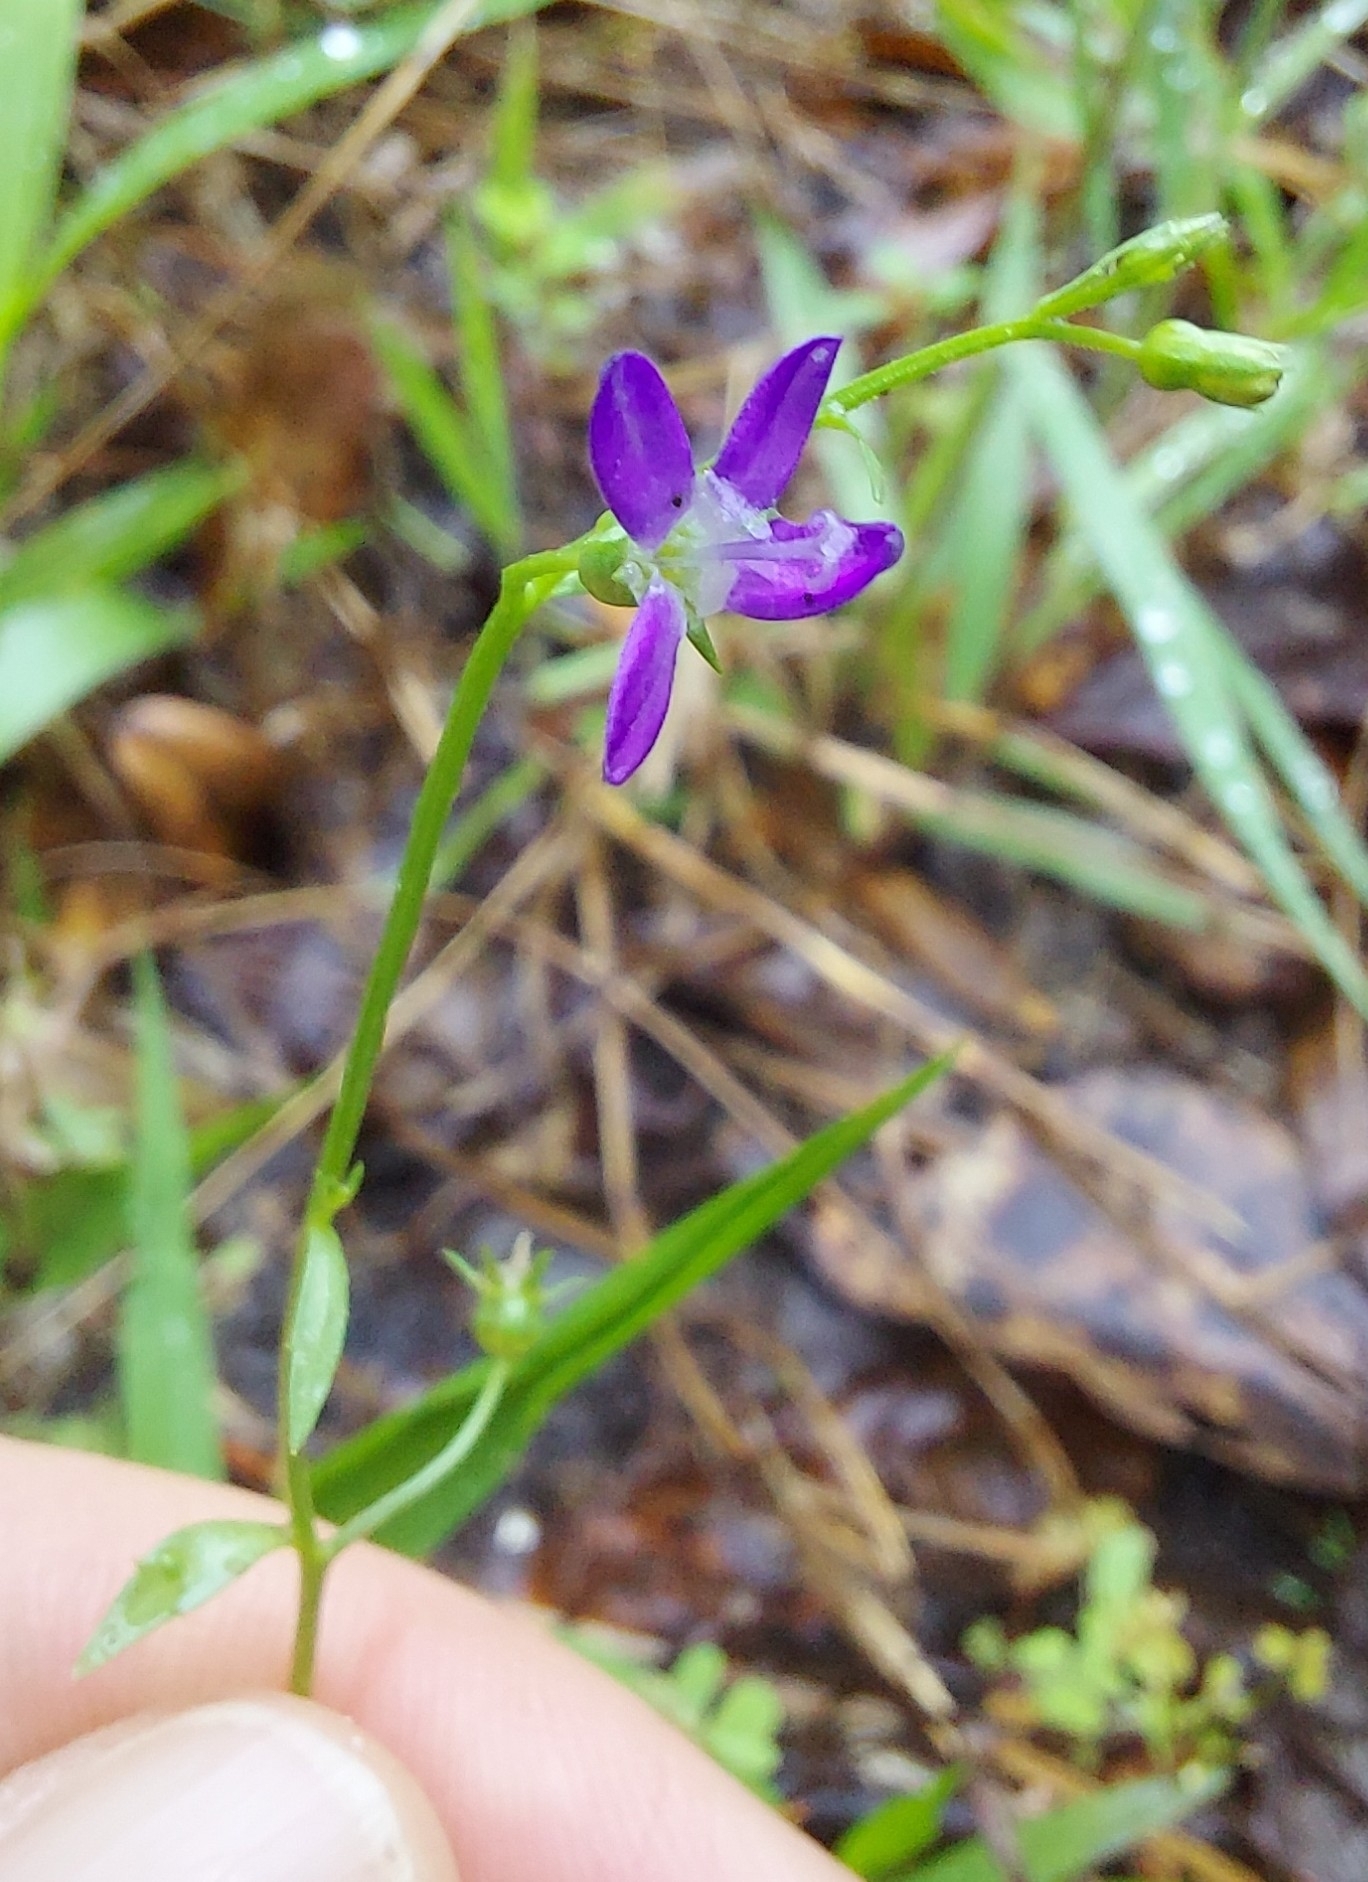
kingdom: Plantae
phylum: Tracheophyta
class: Magnoliopsida
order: Asterales
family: Campanulaceae
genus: Protocodon
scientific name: Protocodon robinsiae
